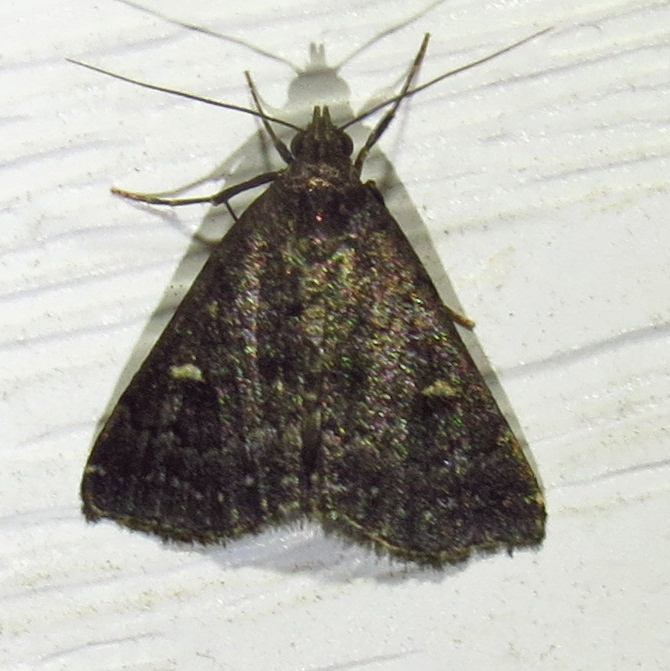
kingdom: Animalia
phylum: Arthropoda
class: Insecta
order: Lepidoptera
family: Erebidae
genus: Tetanolita
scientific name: Tetanolita mynesalis
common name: Smoky tetanolita moth
